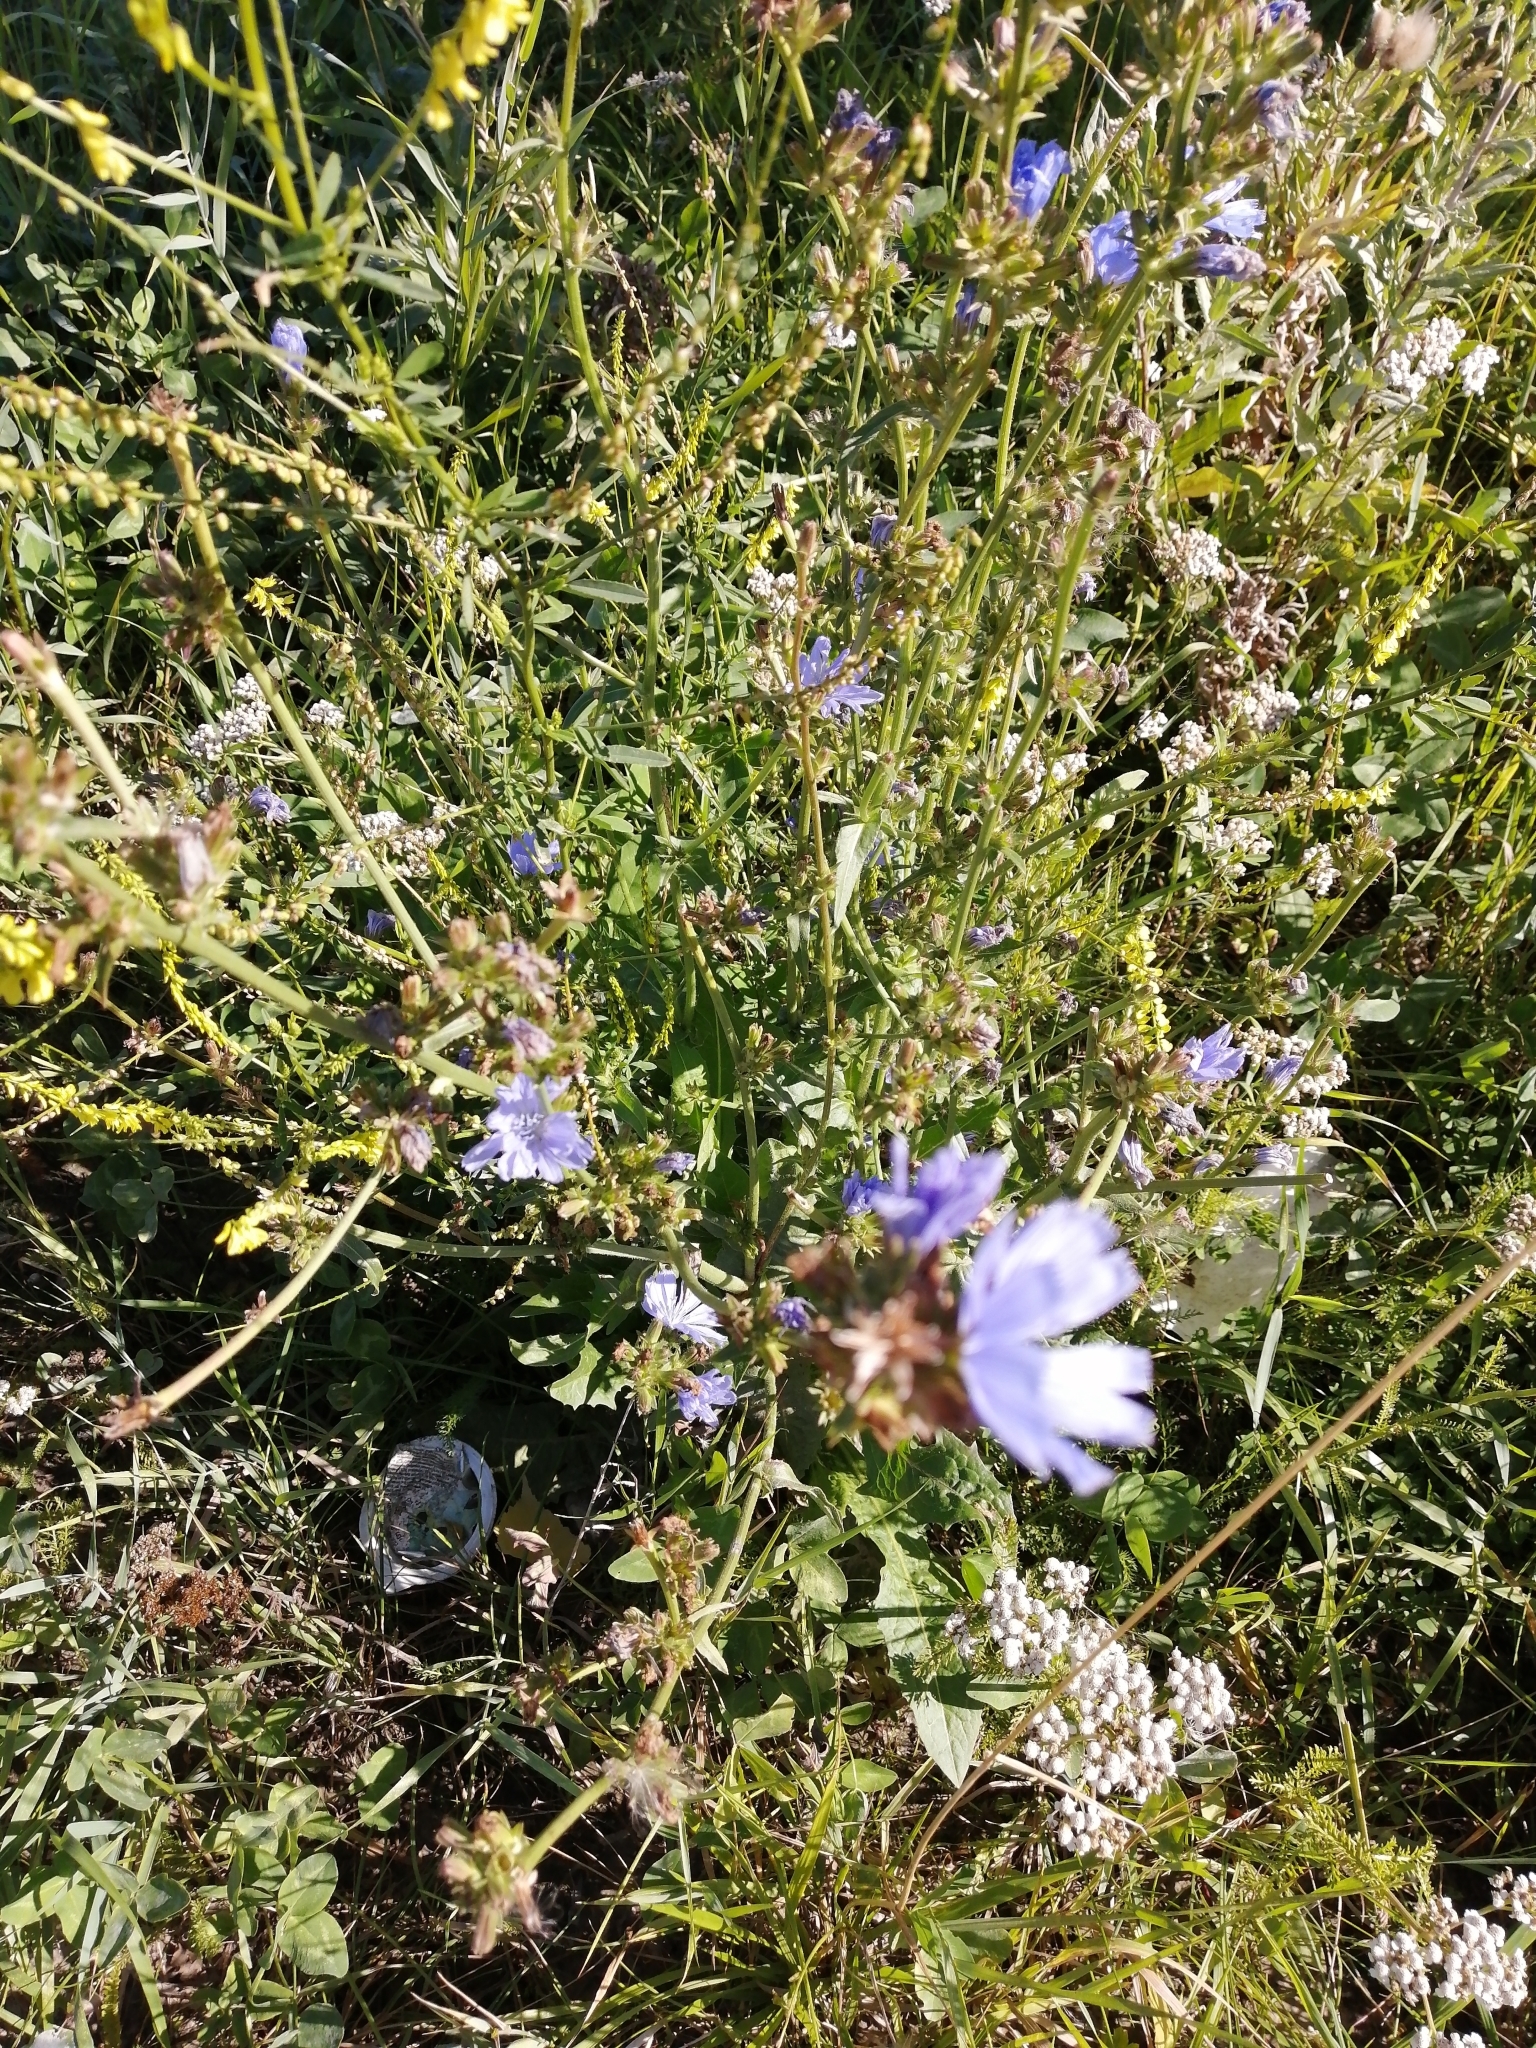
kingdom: Plantae
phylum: Tracheophyta
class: Magnoliopsida
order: Asterales
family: Asteraceae
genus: Cichorium
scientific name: Cichorium intybus
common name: Chicory
